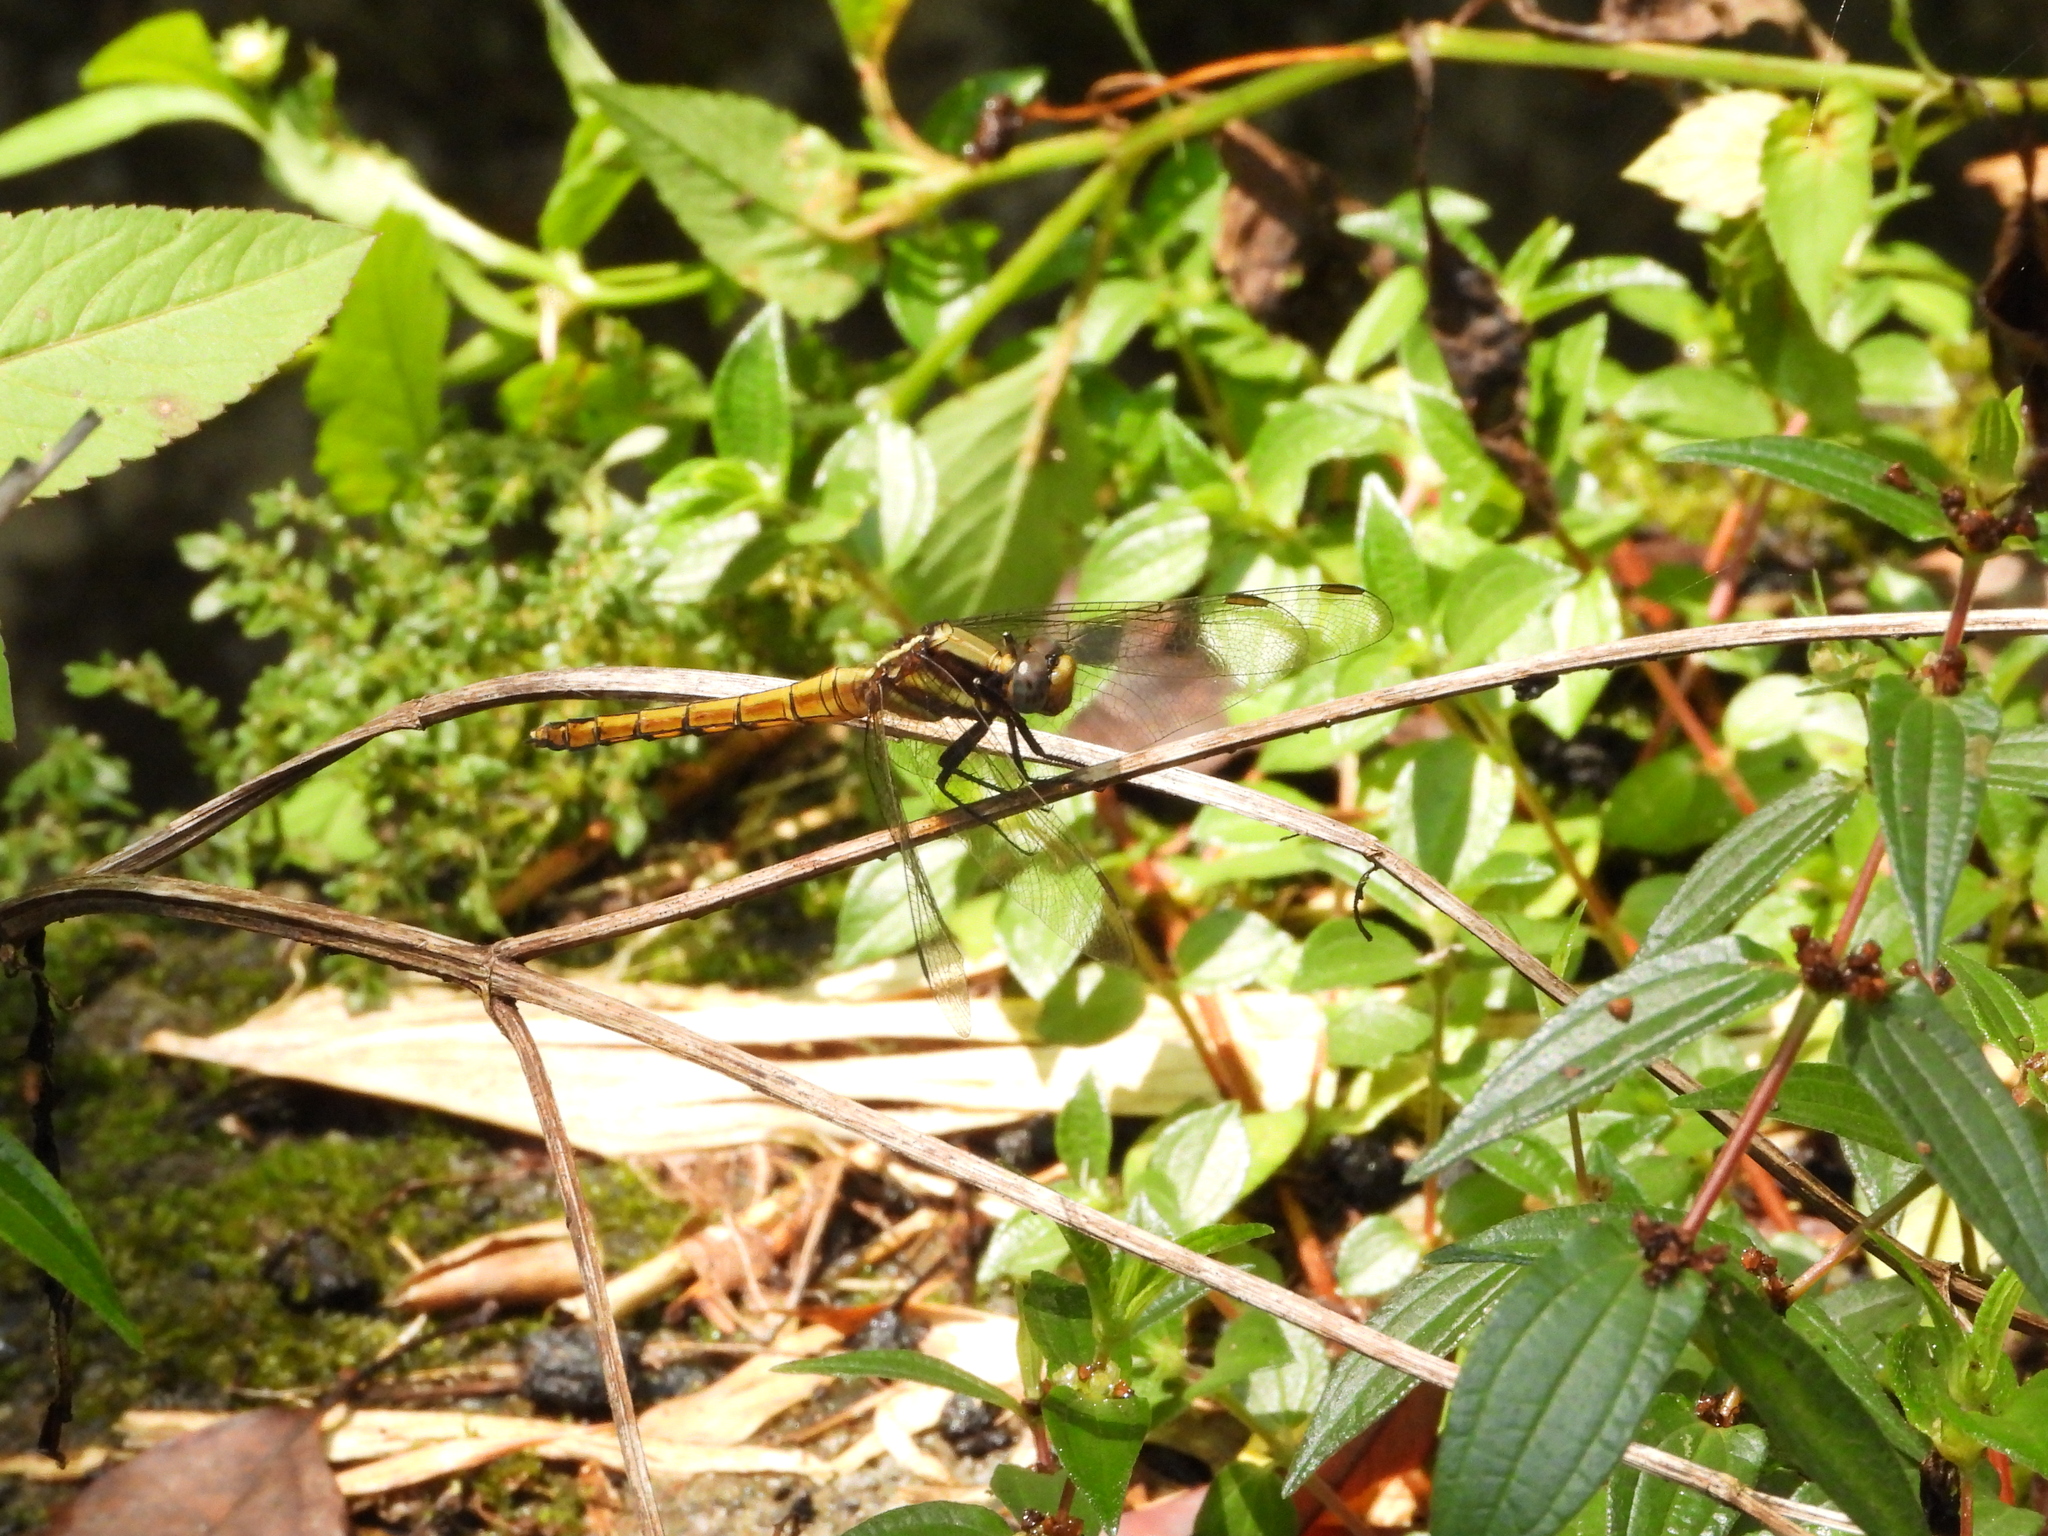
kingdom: Animalia
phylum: Arthropoda
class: Insecta
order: Odonata
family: Libellulidae
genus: Orthetrum
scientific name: Orthetrum glaucum
